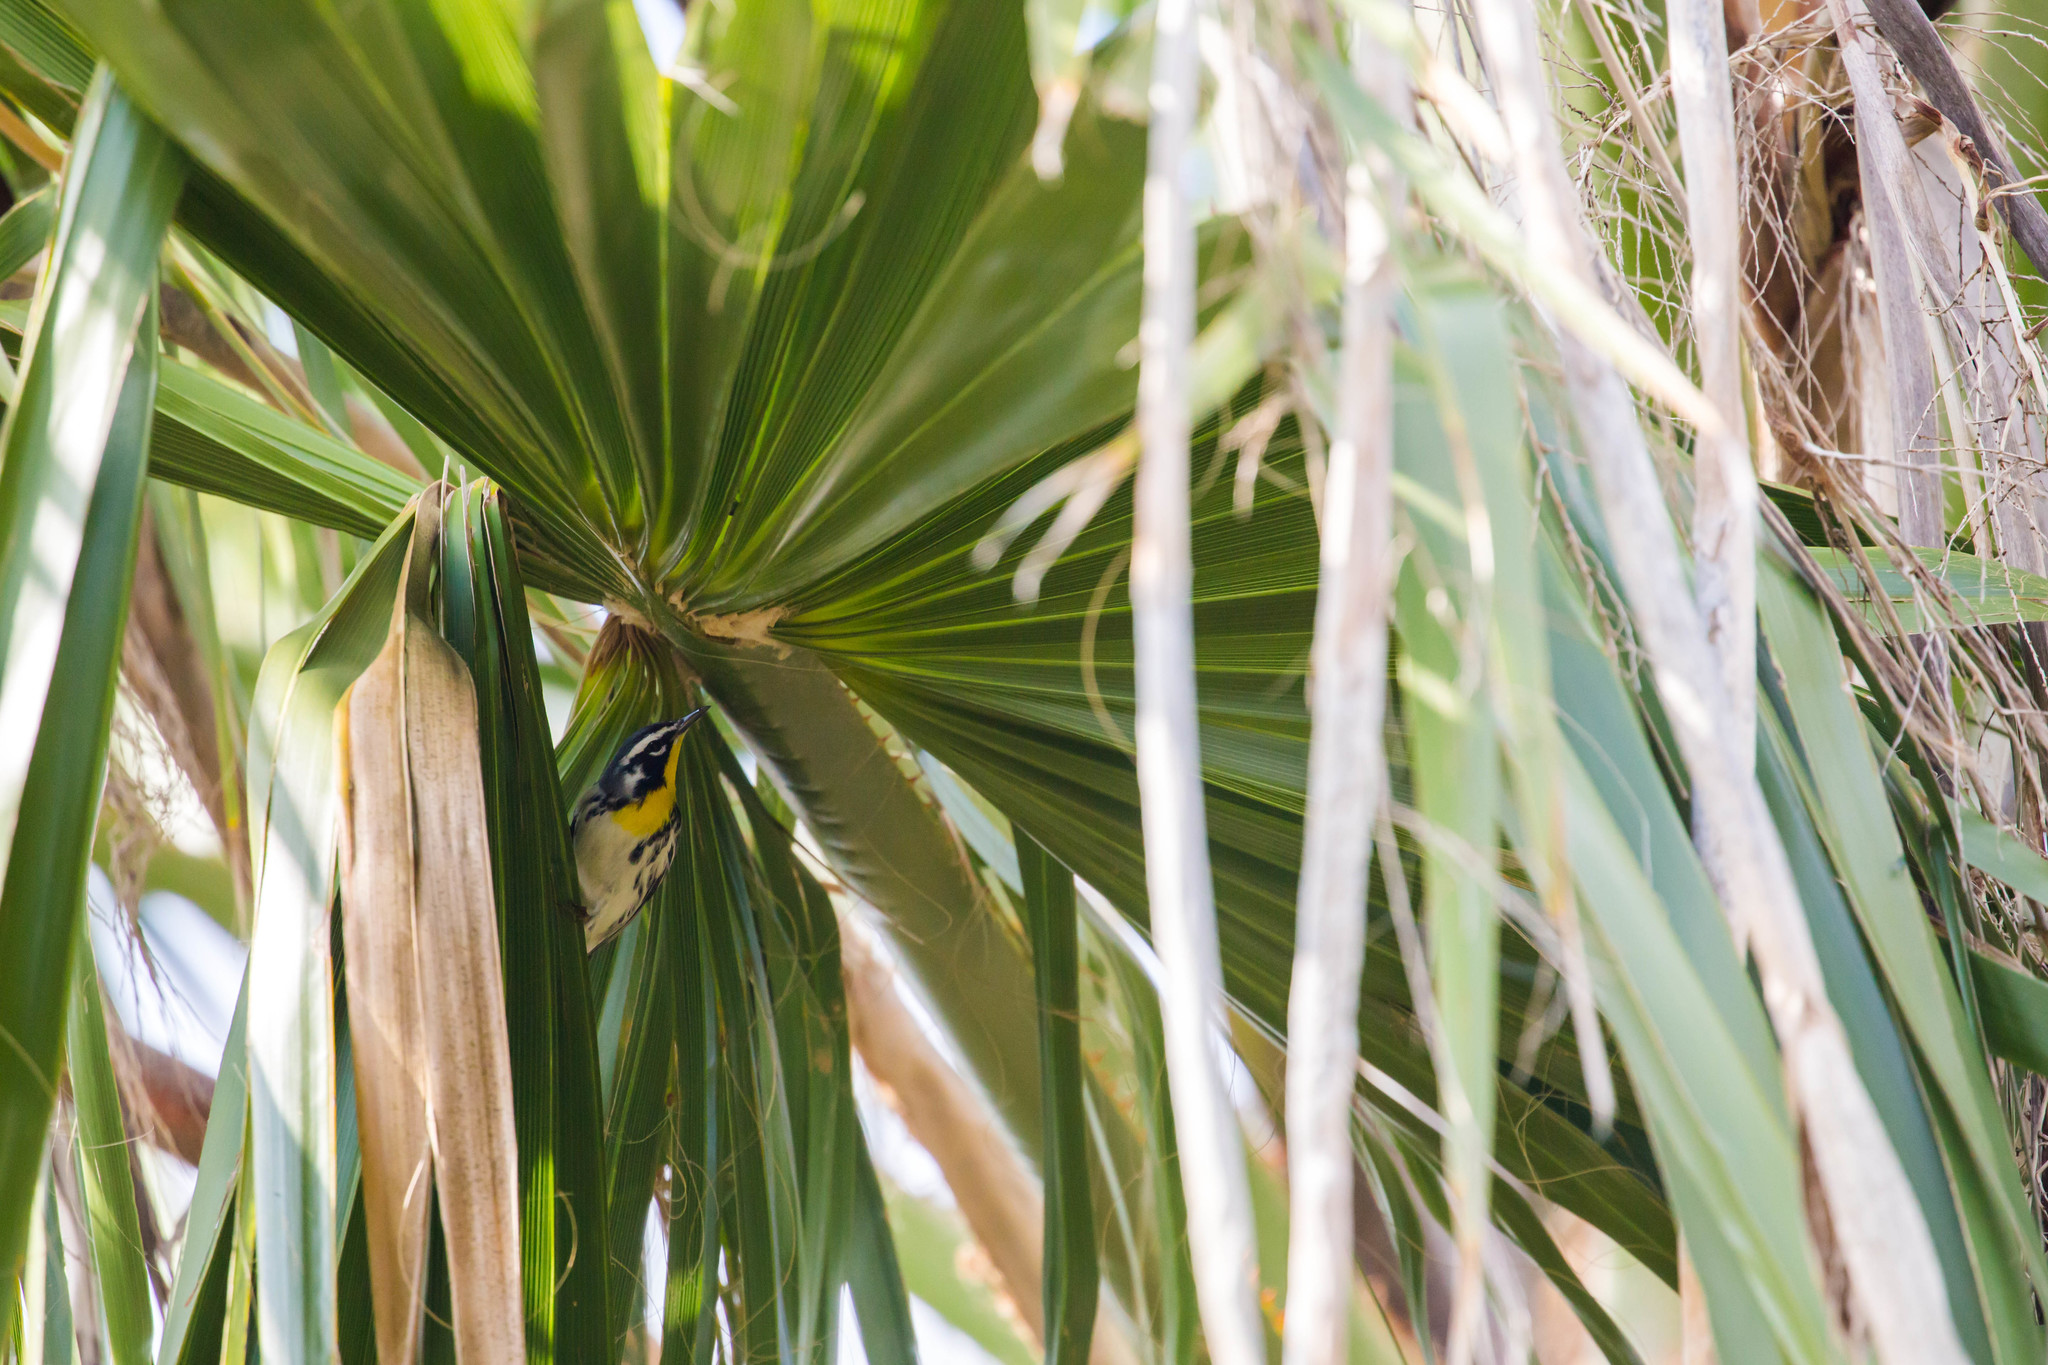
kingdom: Animalia
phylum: Chordata
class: Aves
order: Passeriformes
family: Parulidae
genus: Setophaga
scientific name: Setophaga dominica
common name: Yellow-throated warbler
